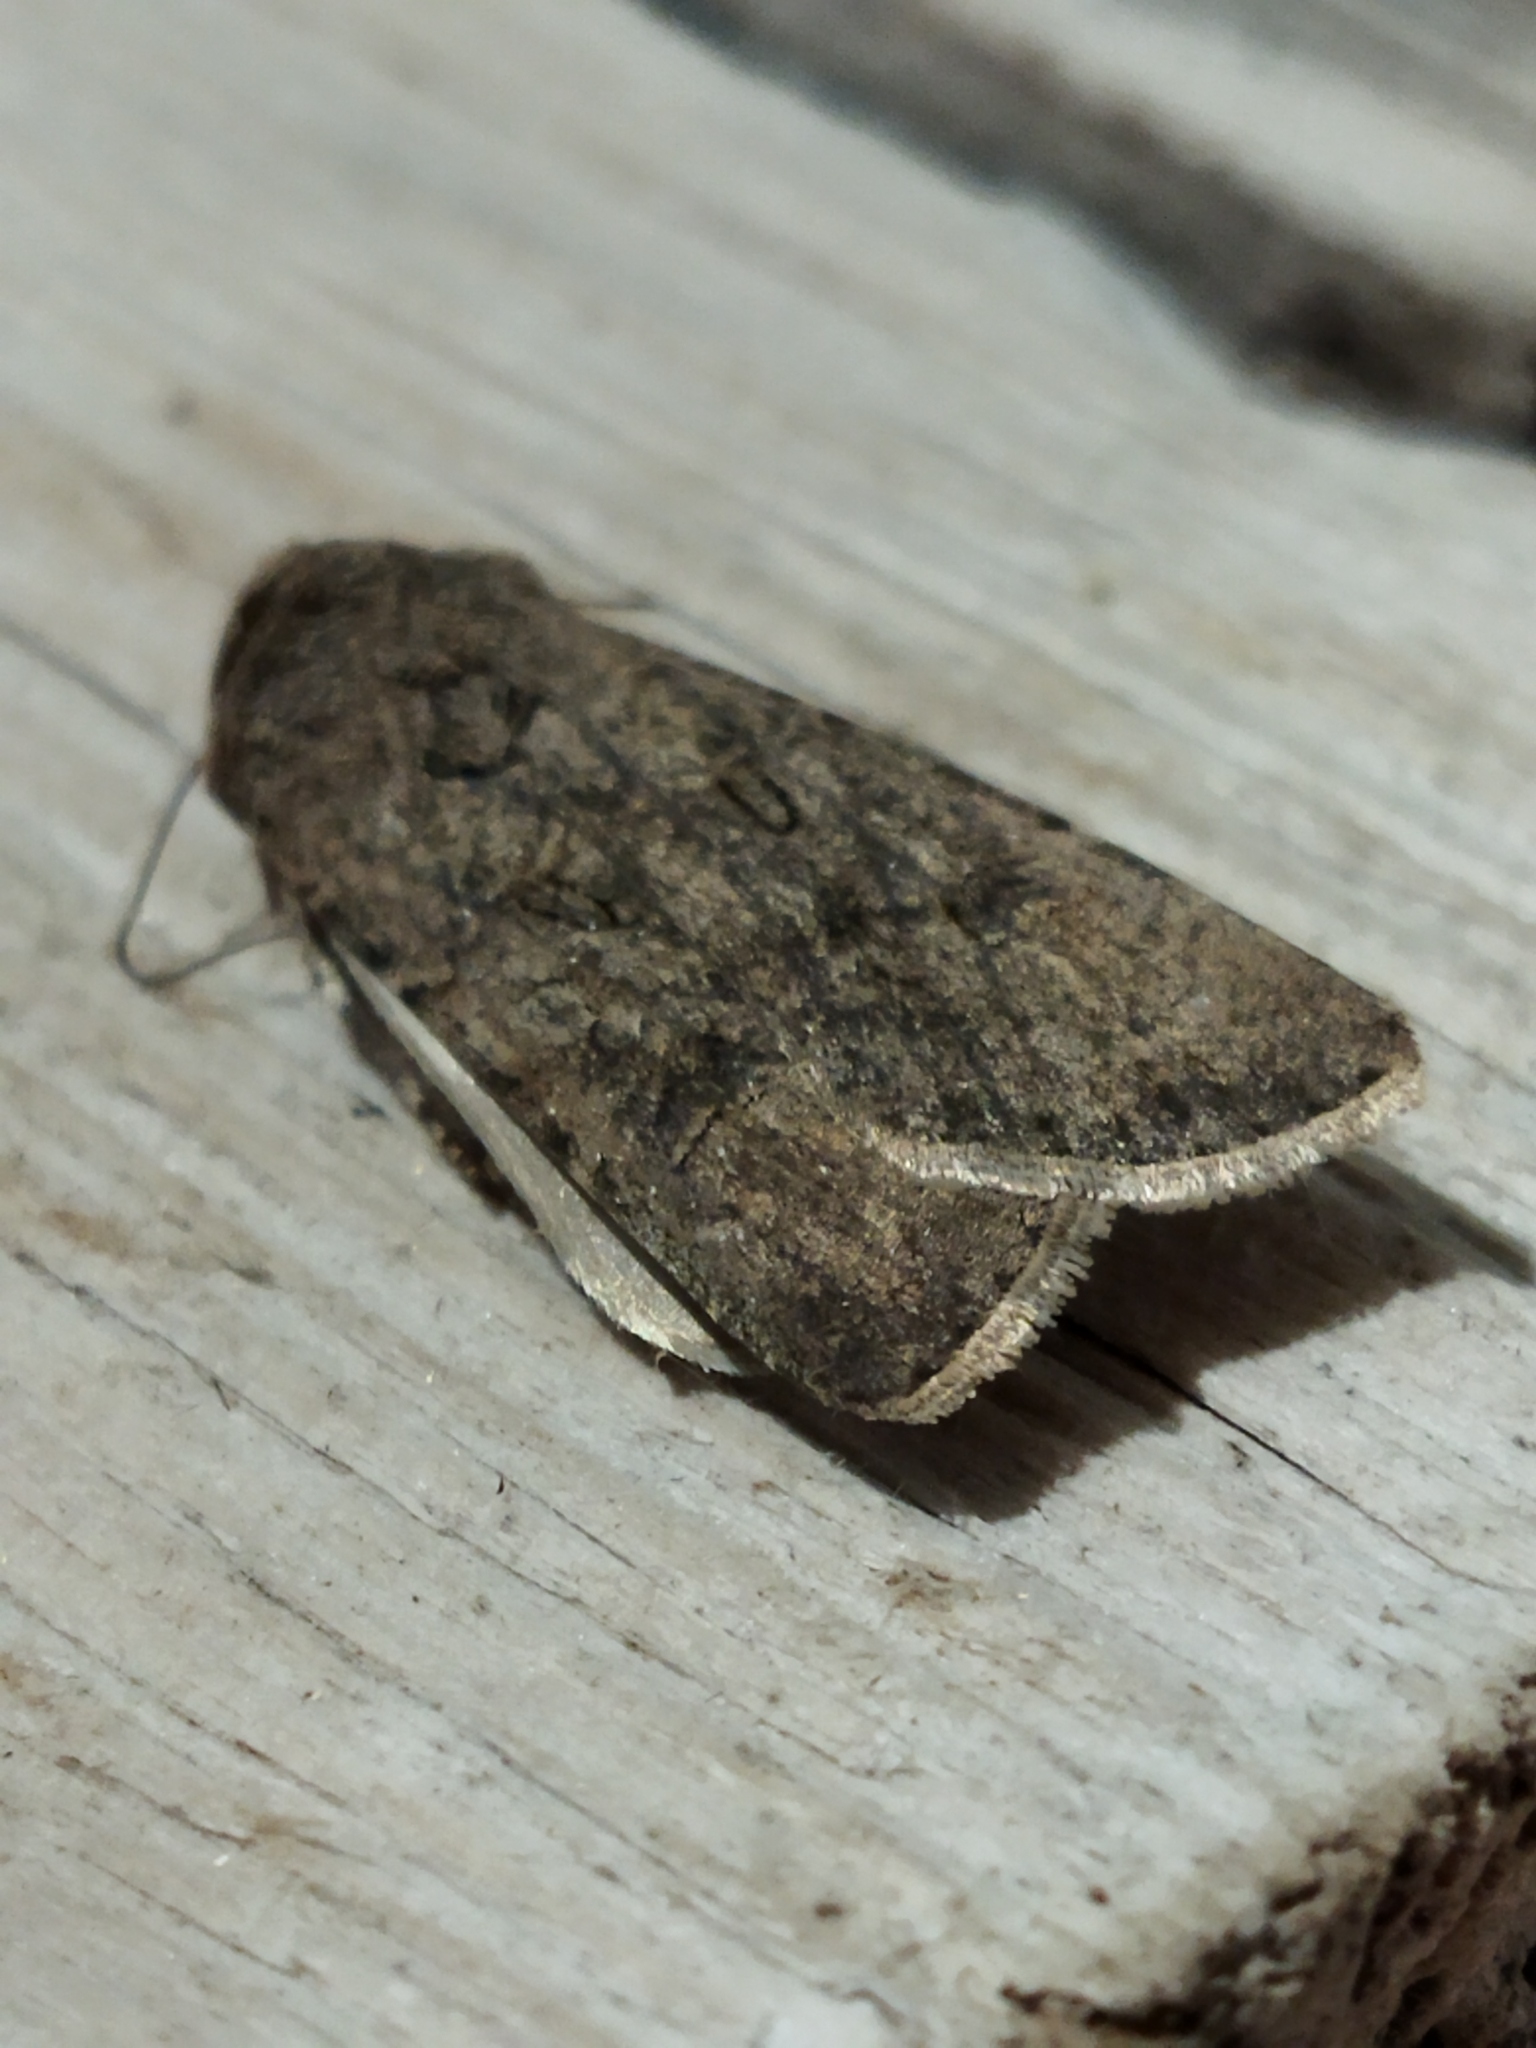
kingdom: Animalia
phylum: Arthropoda
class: Insecta
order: Lepidoptera
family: Noctuidae
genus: Agrotis
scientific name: Agrotis segetum
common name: Turnip moth
